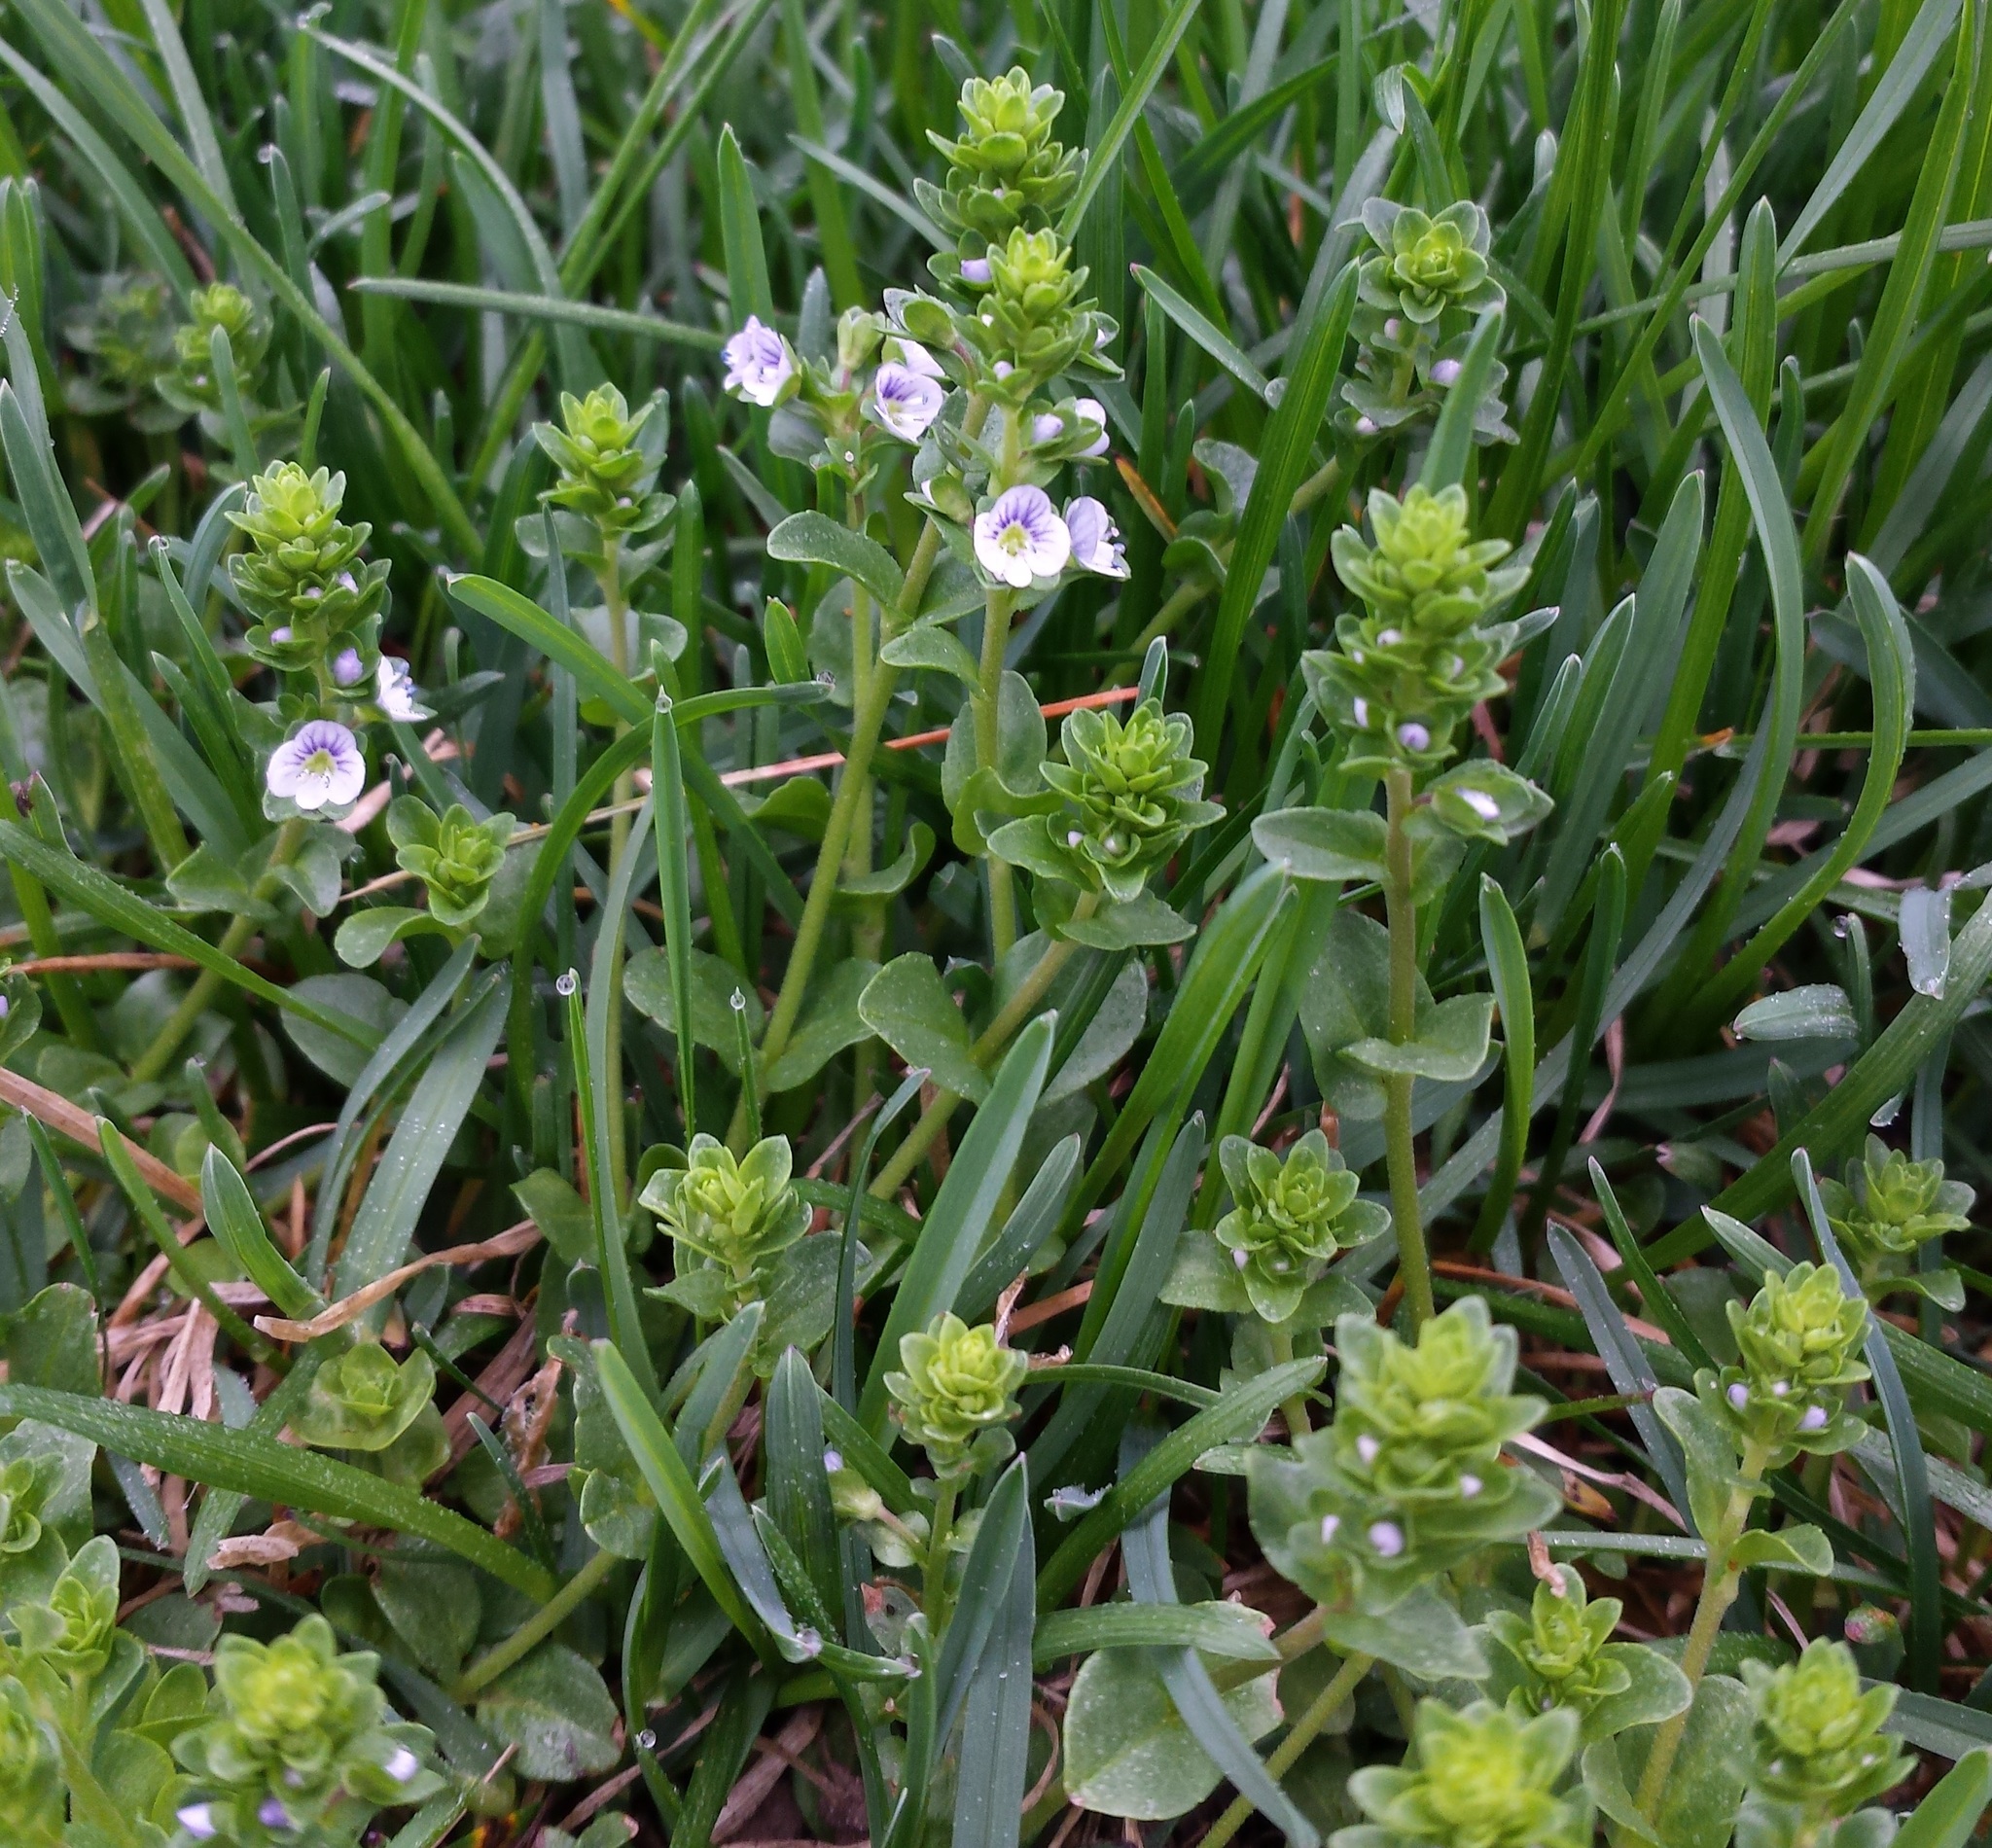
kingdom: Plantae
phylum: Tracheophyta
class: Magnoliopsida
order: Lamiales
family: Plantaginaceae
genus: Veronica
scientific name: Veronica serpyllifolia
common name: Thyme-leaved speedwell
